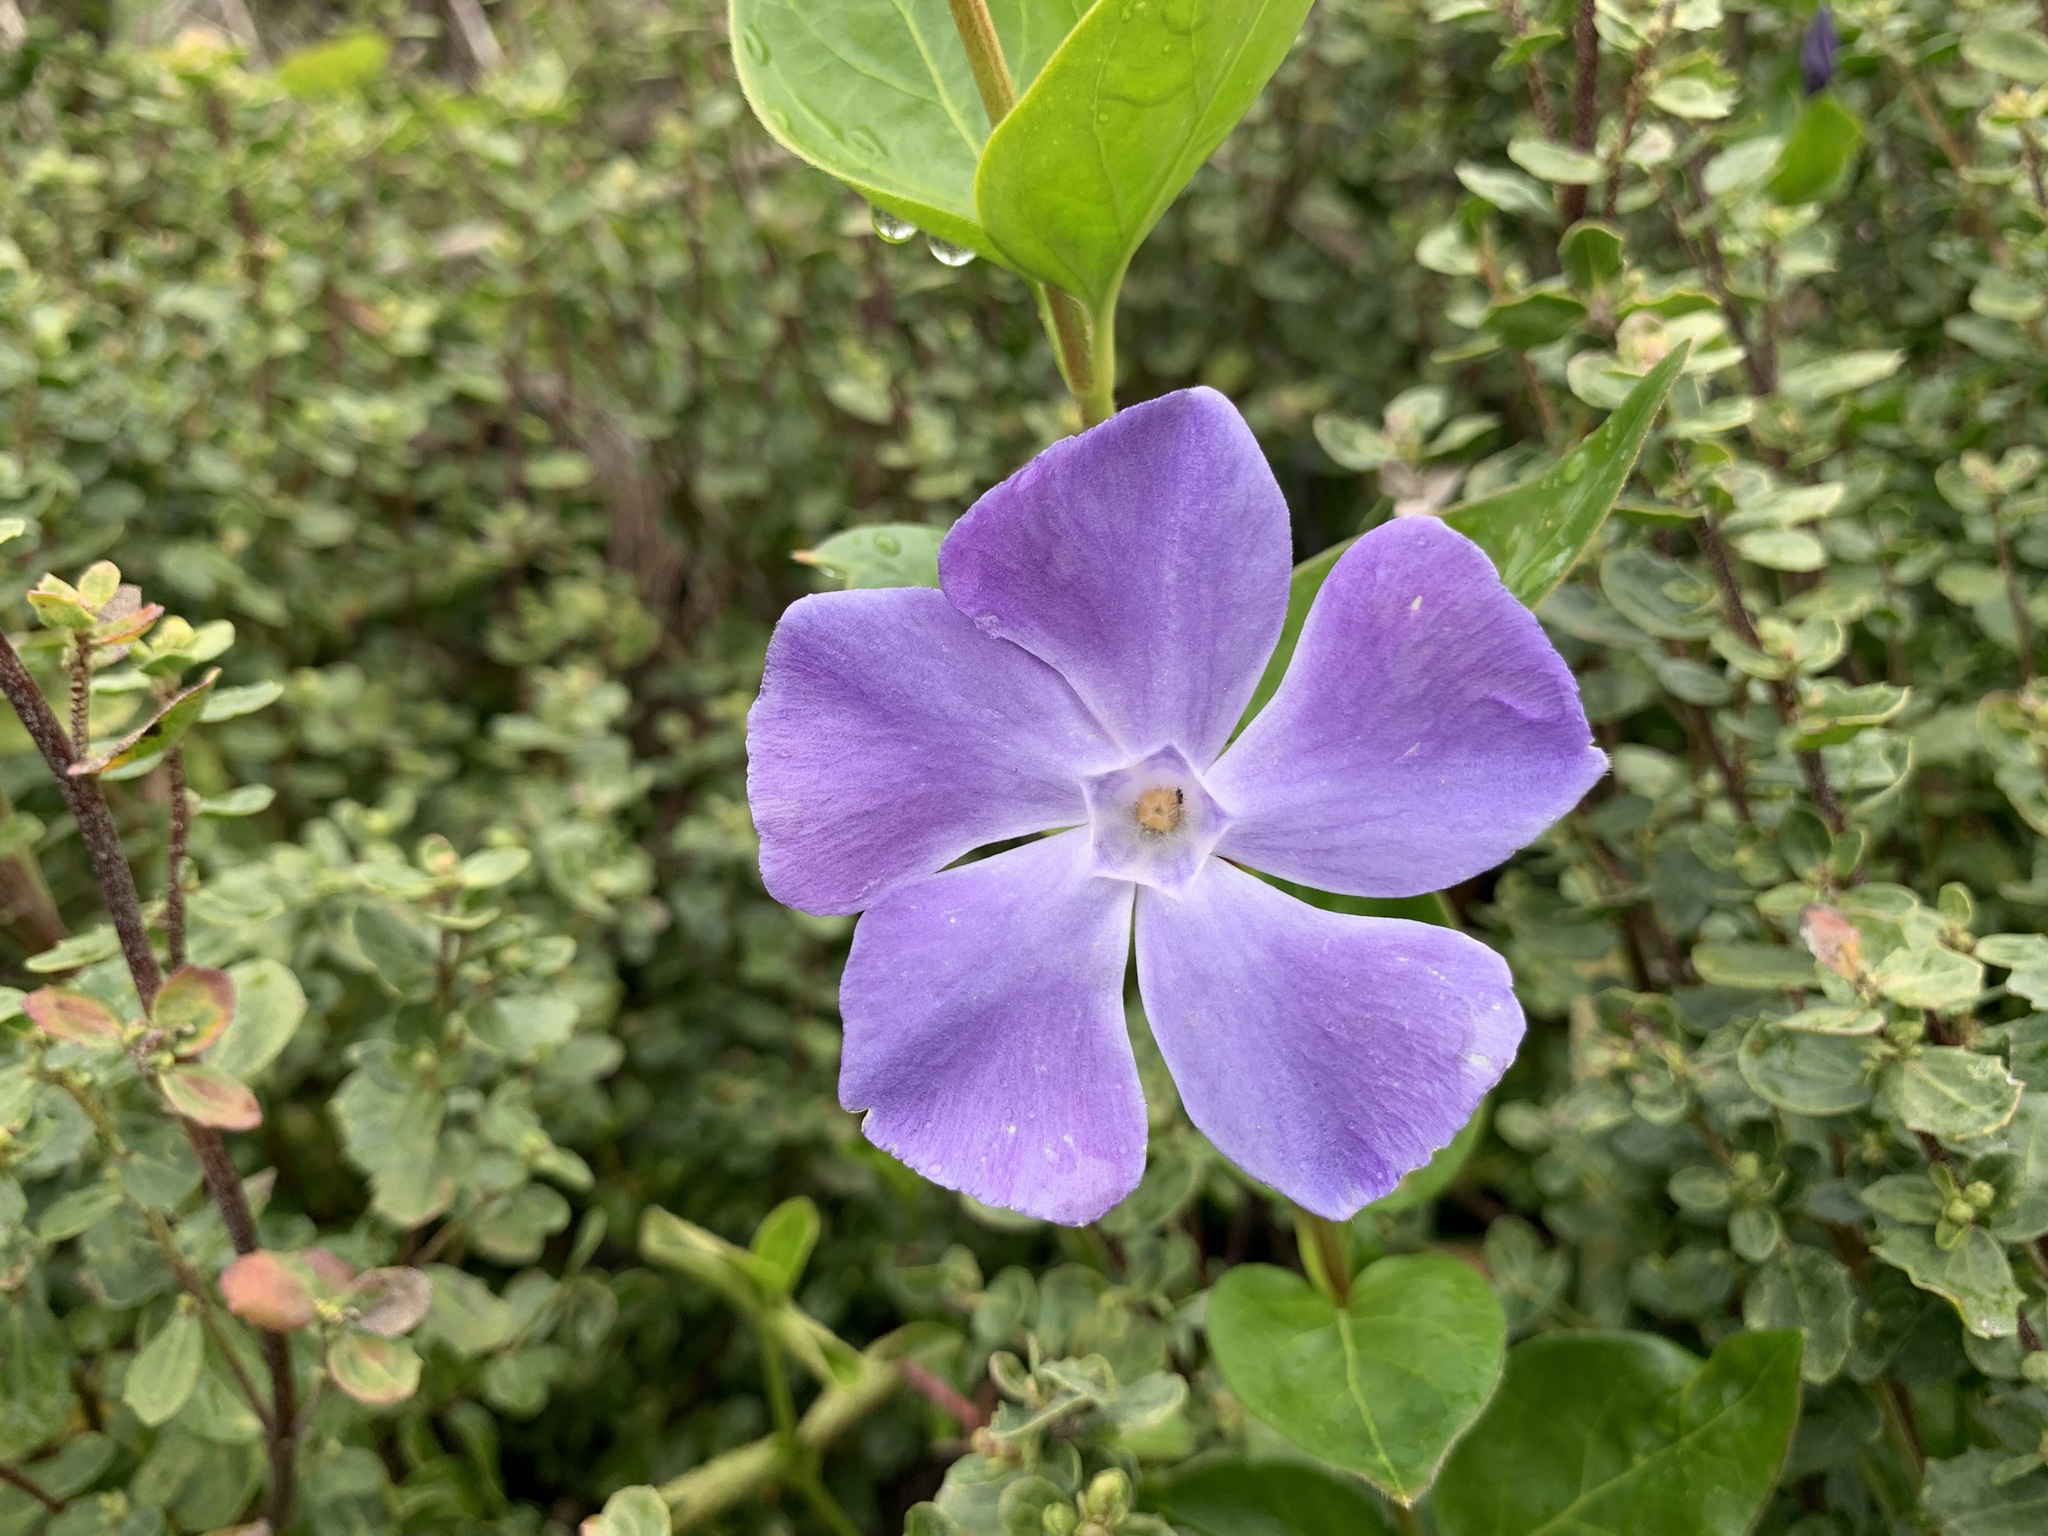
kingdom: Plantae
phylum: Tracheophyta
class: Magnoliopsida
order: Gentianales
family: Apocynaceae
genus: Vinca
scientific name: Vinca major
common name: Greater periwinkle
